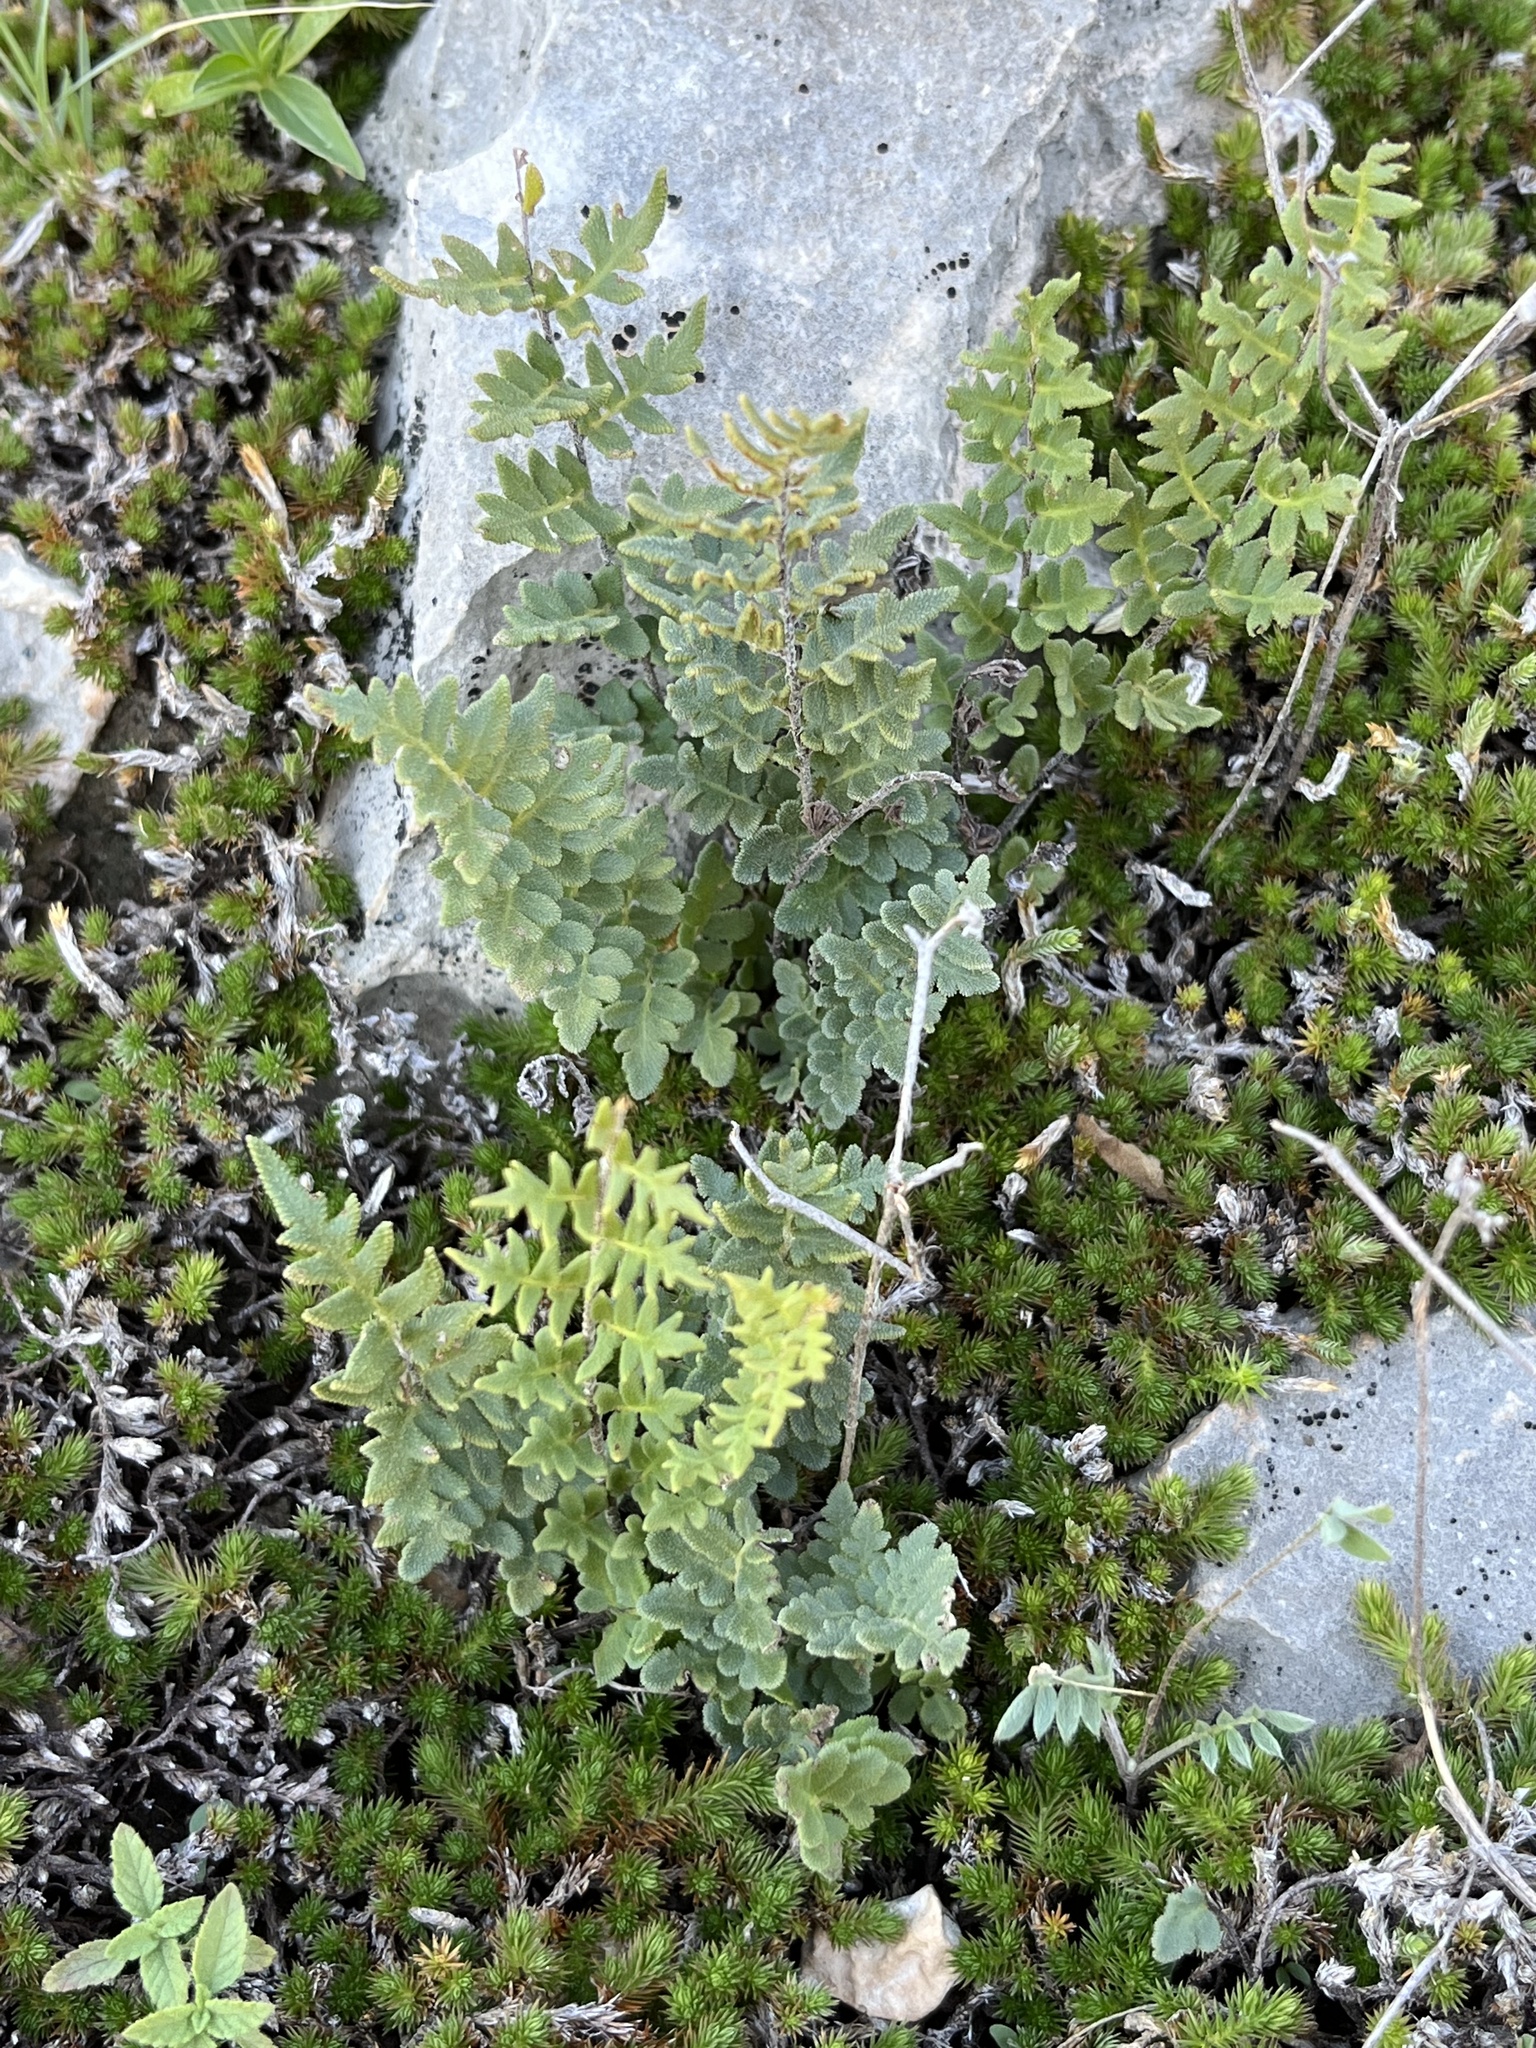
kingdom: Plantae
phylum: Tracheophyta
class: Polypodiopsida
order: Polypodiales
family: Pteridaceae
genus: Myriopteris
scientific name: Myriopteris scabra
